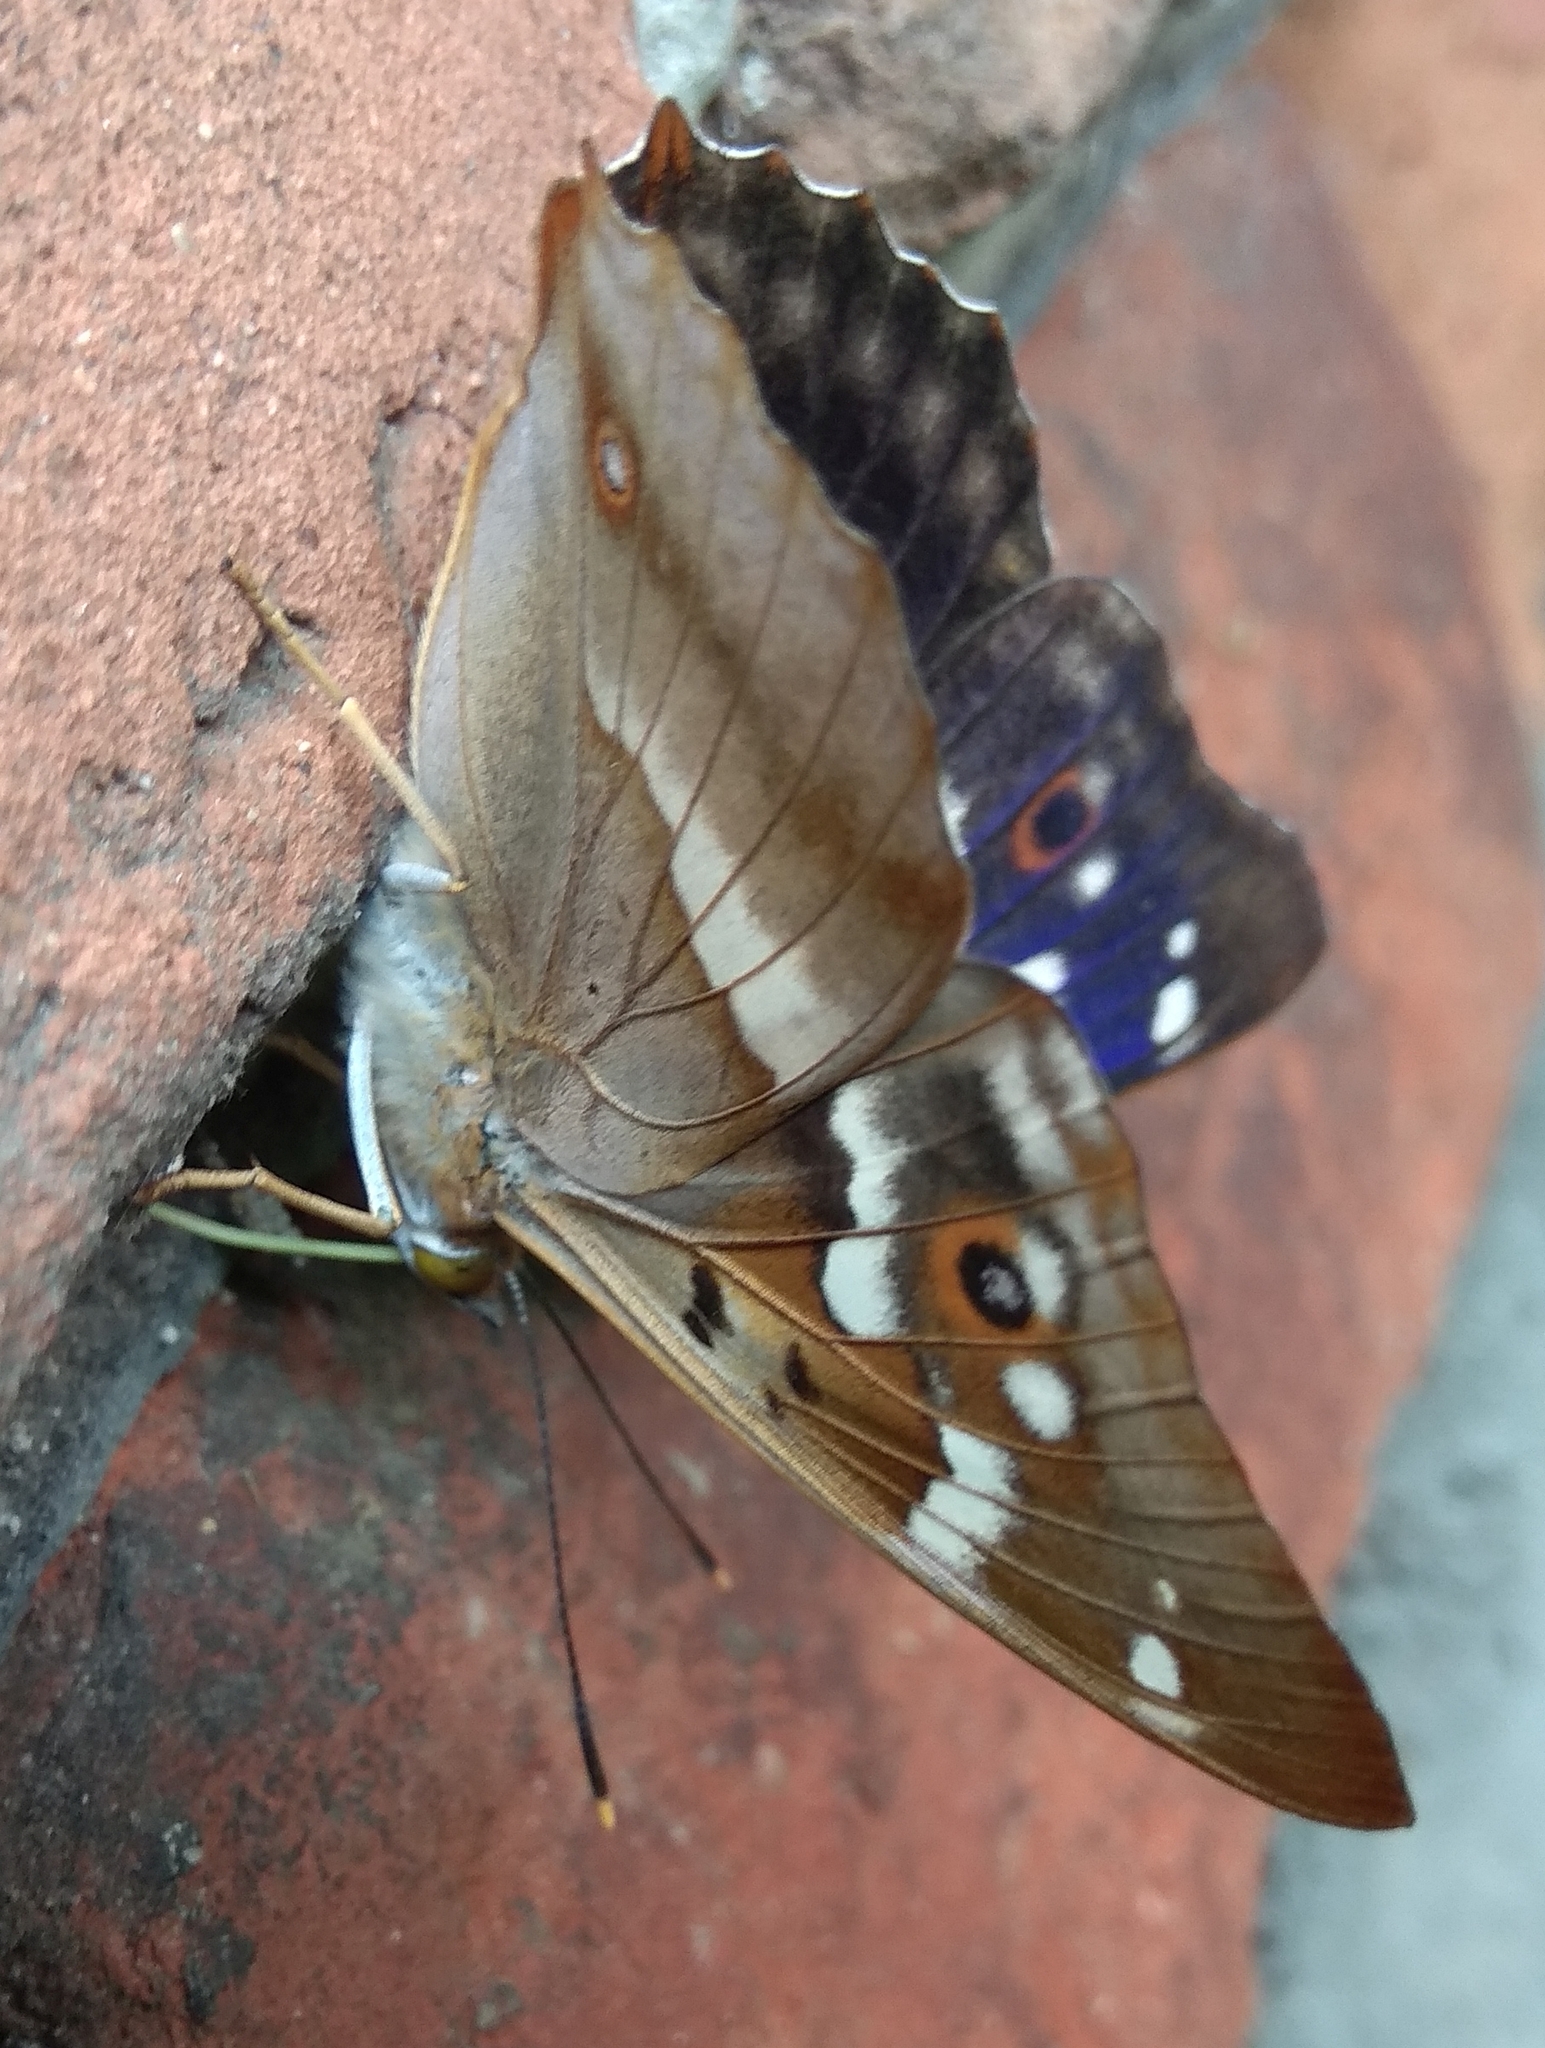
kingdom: Animalia
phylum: Arthropoda
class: Insecta
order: Lepidoptera
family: Nymphalidae
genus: Apatura
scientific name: Apatura ilia
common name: Lesser purple emperor
